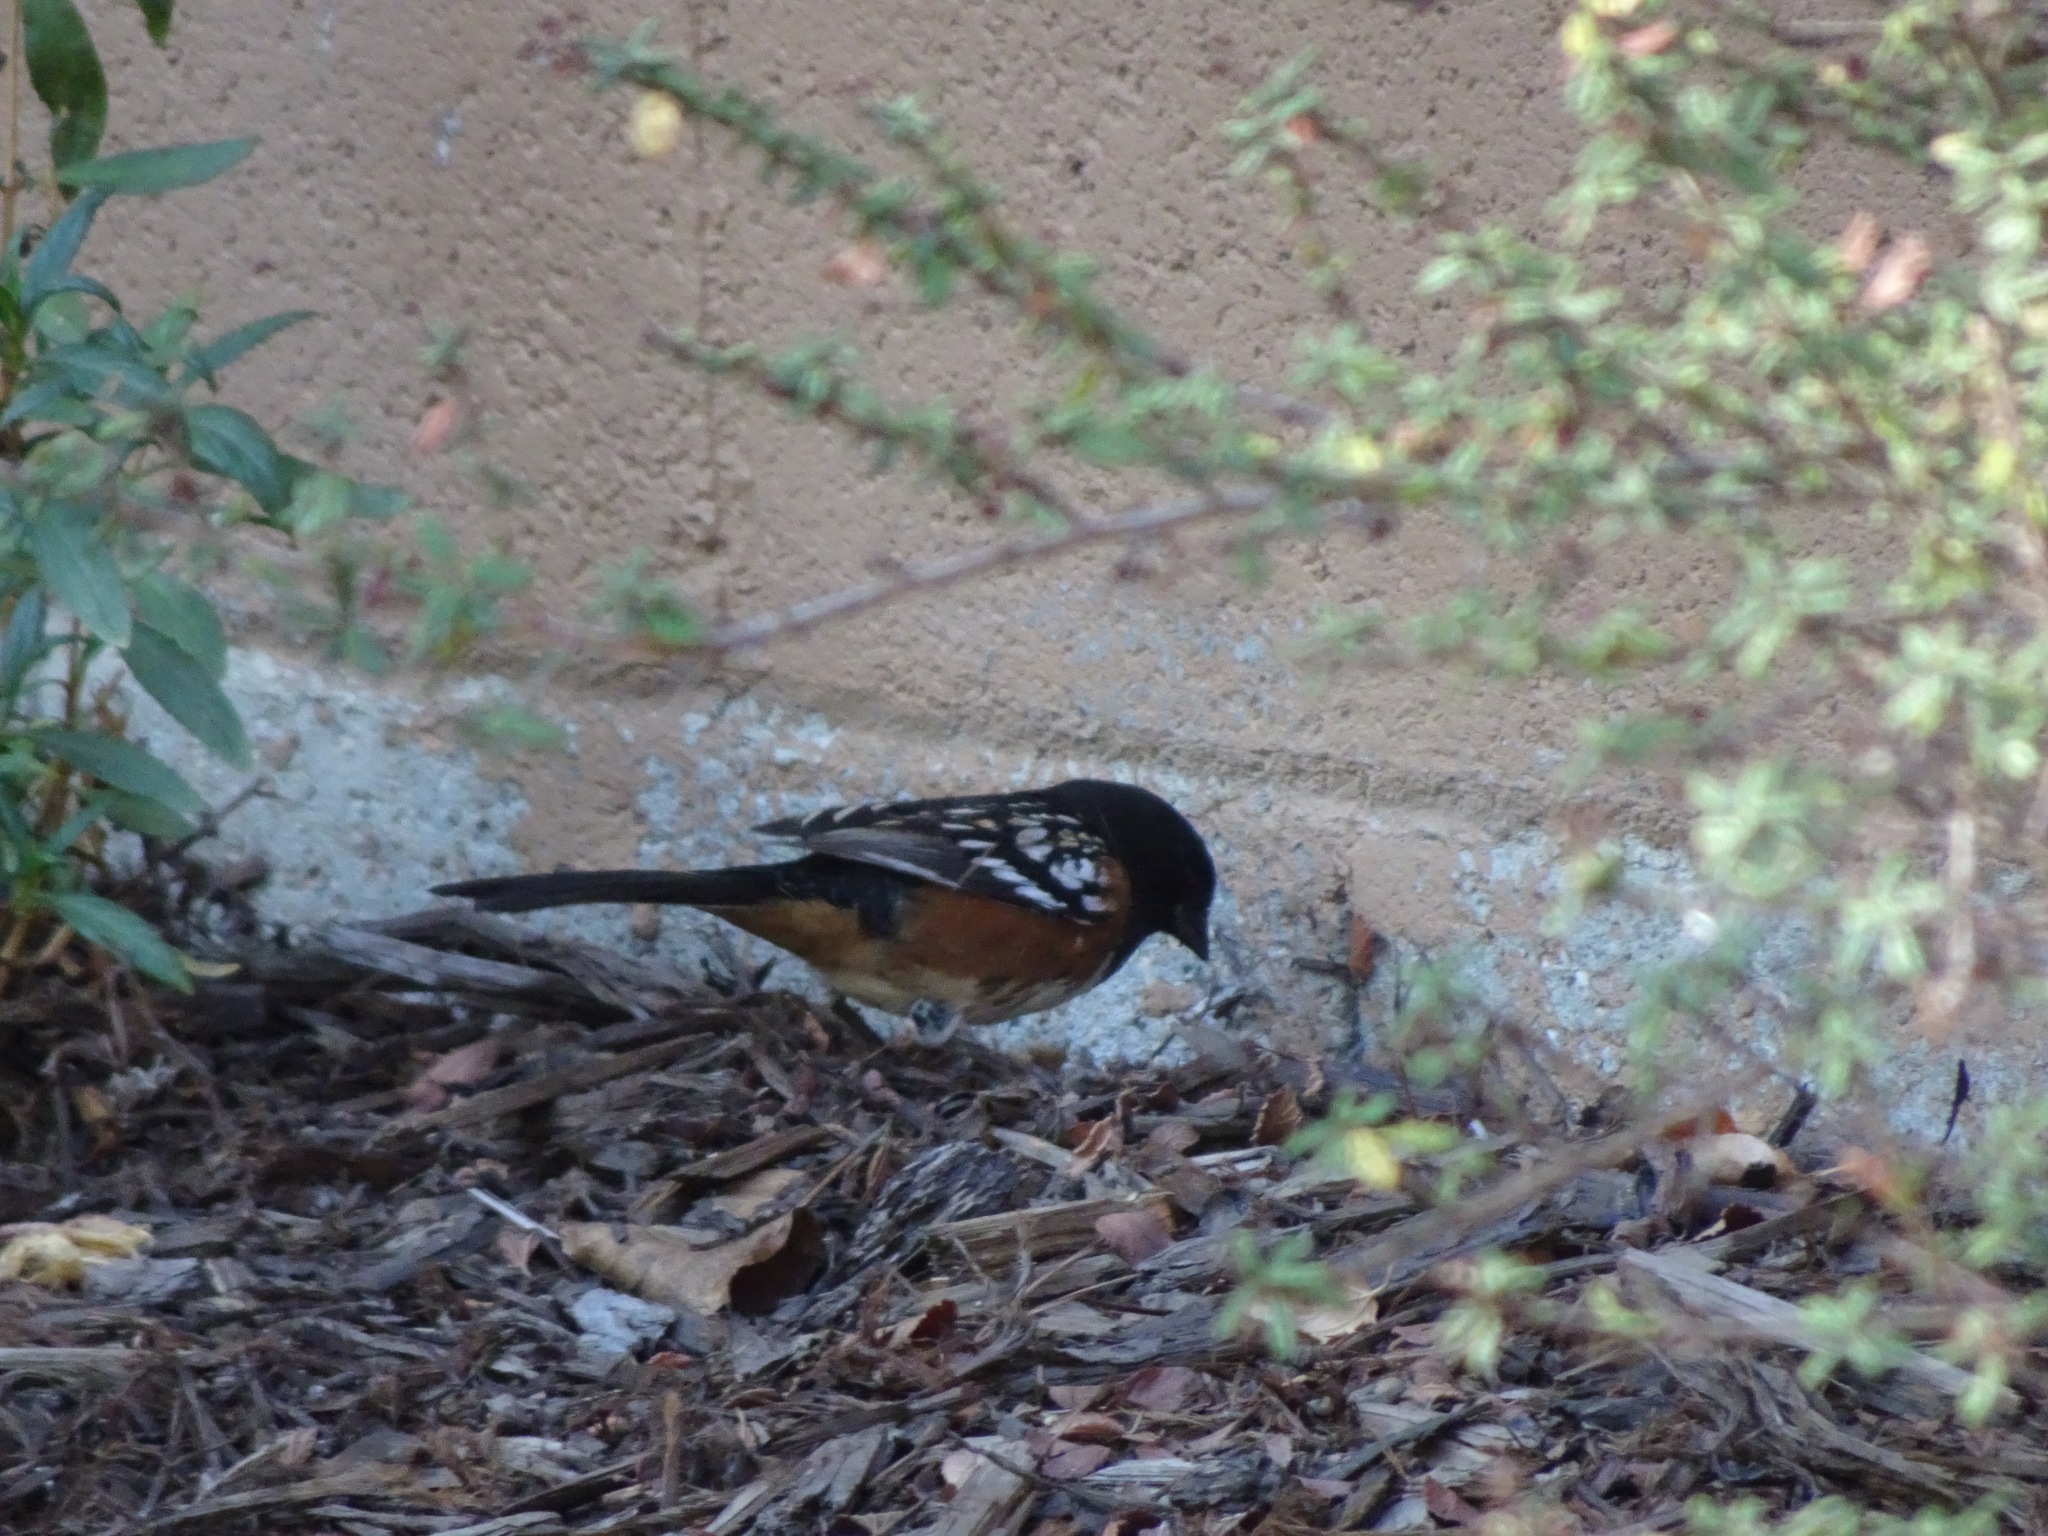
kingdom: Animalia
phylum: Chordata
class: Aves
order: Passeriformes
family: Passerellidae
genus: Pipilo
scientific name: Pipilo maculatus
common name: Spotted towhee
